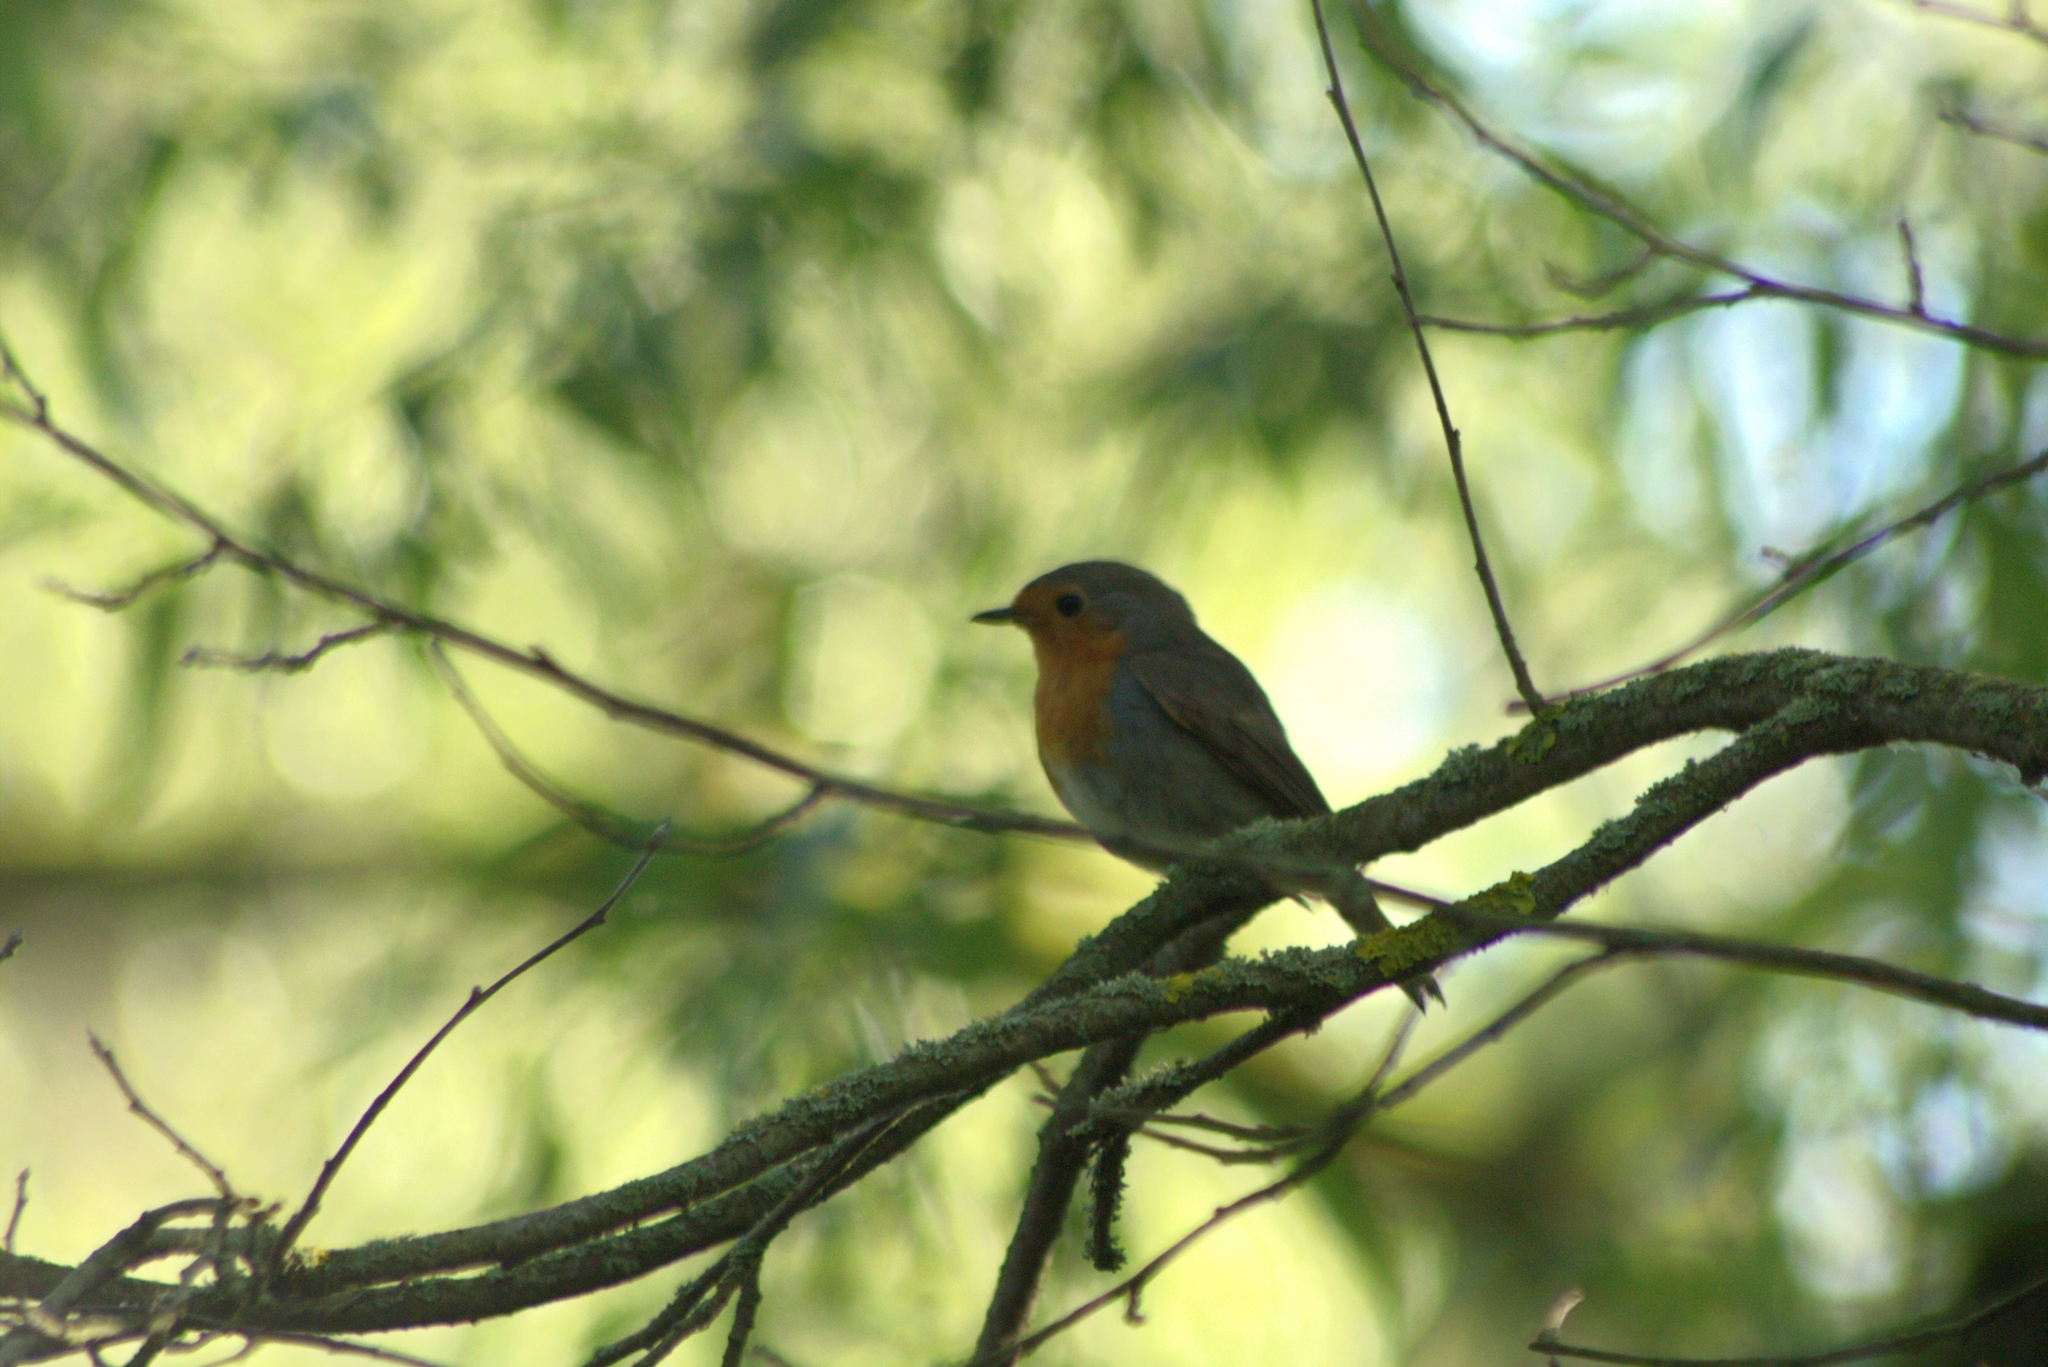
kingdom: Animalia
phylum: Chordata
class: Aves
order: Passeriformes
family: Muscicapidae
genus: Erithacus
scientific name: Erithacus rubecula
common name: European robin
